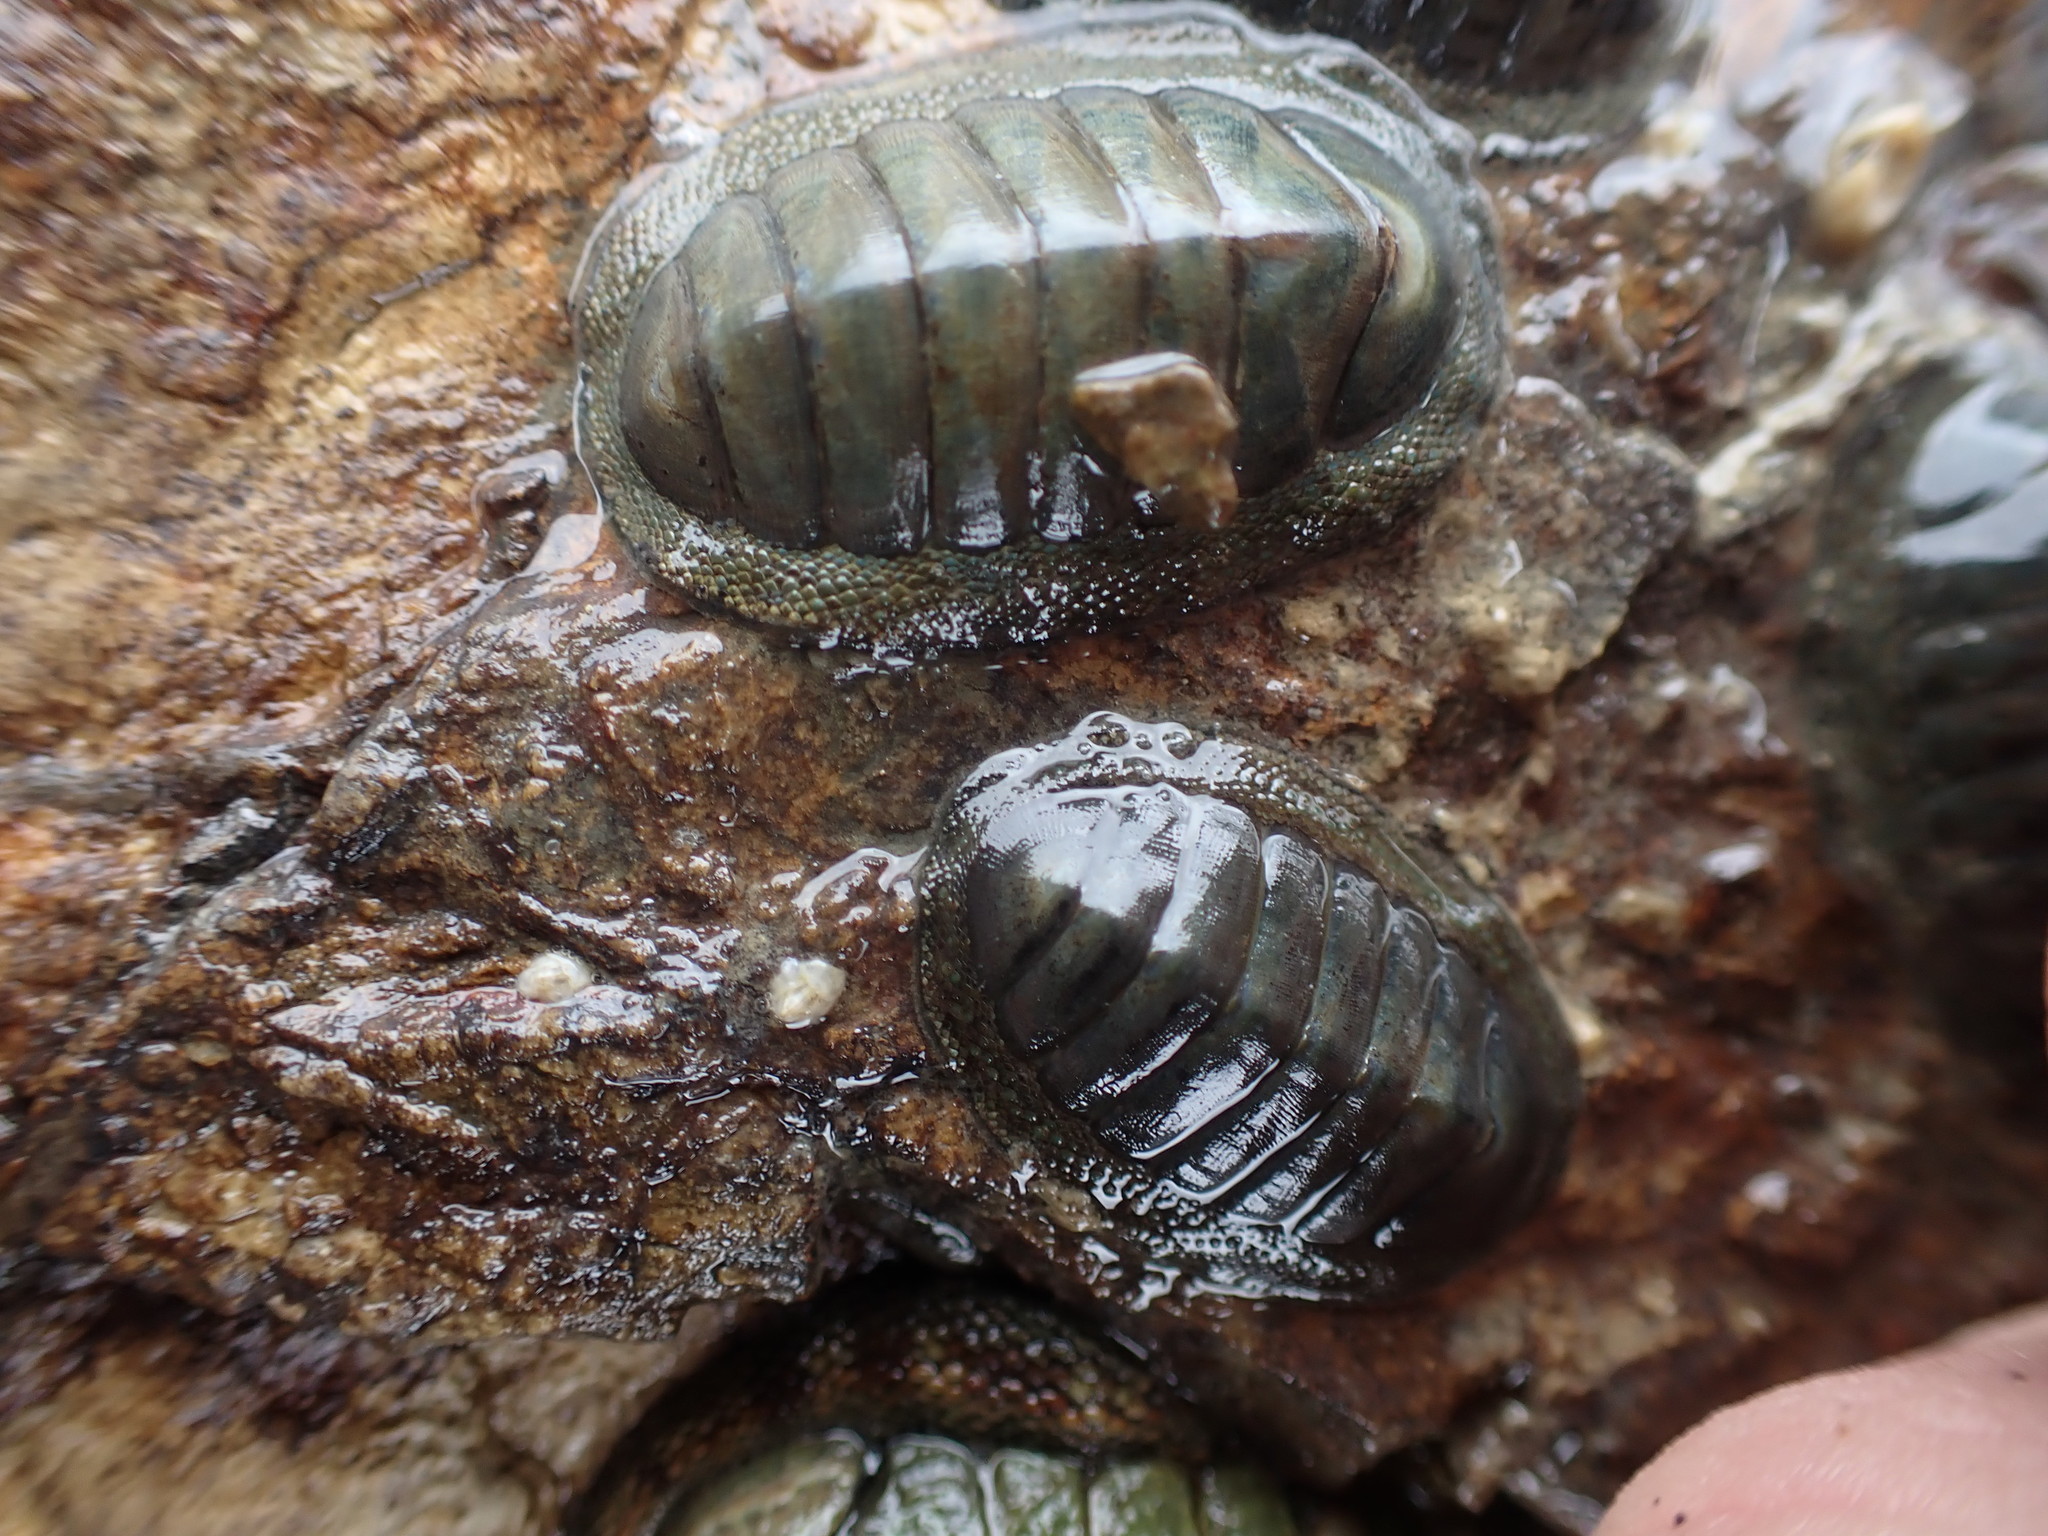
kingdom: Animalia
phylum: Mollusca
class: Polyplacophora
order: Chitonida
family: Chitonidae
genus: Chiton
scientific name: Chiton glaucus
